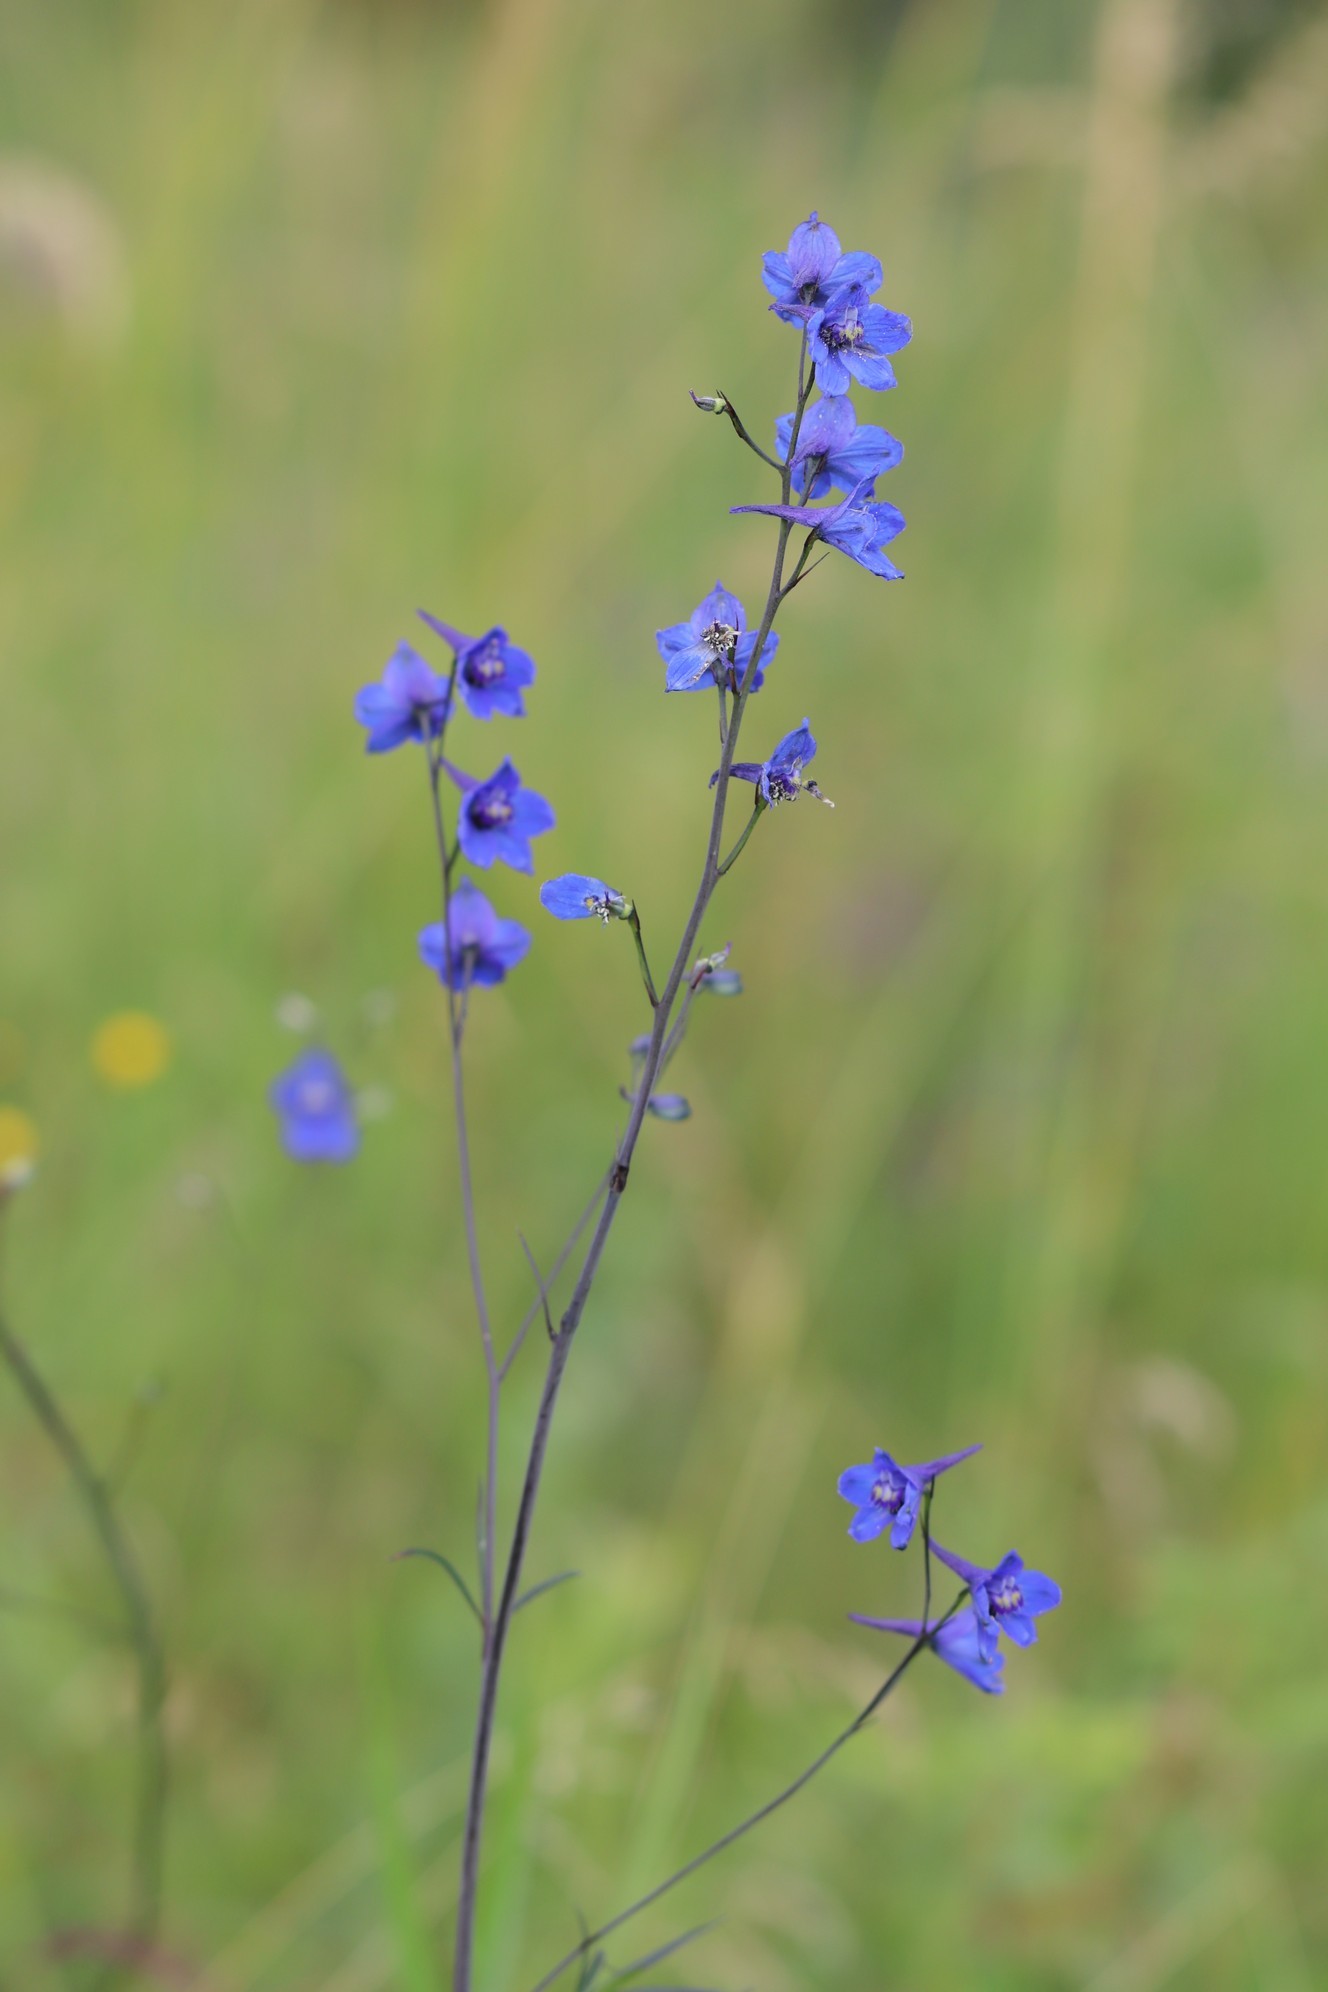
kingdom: Plantae
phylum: Tracheophyta
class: Magnoliopsida
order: Ranunculales
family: Ranunculaceae
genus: Delphinium
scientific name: Delphinium elatum
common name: Candle larkspur
